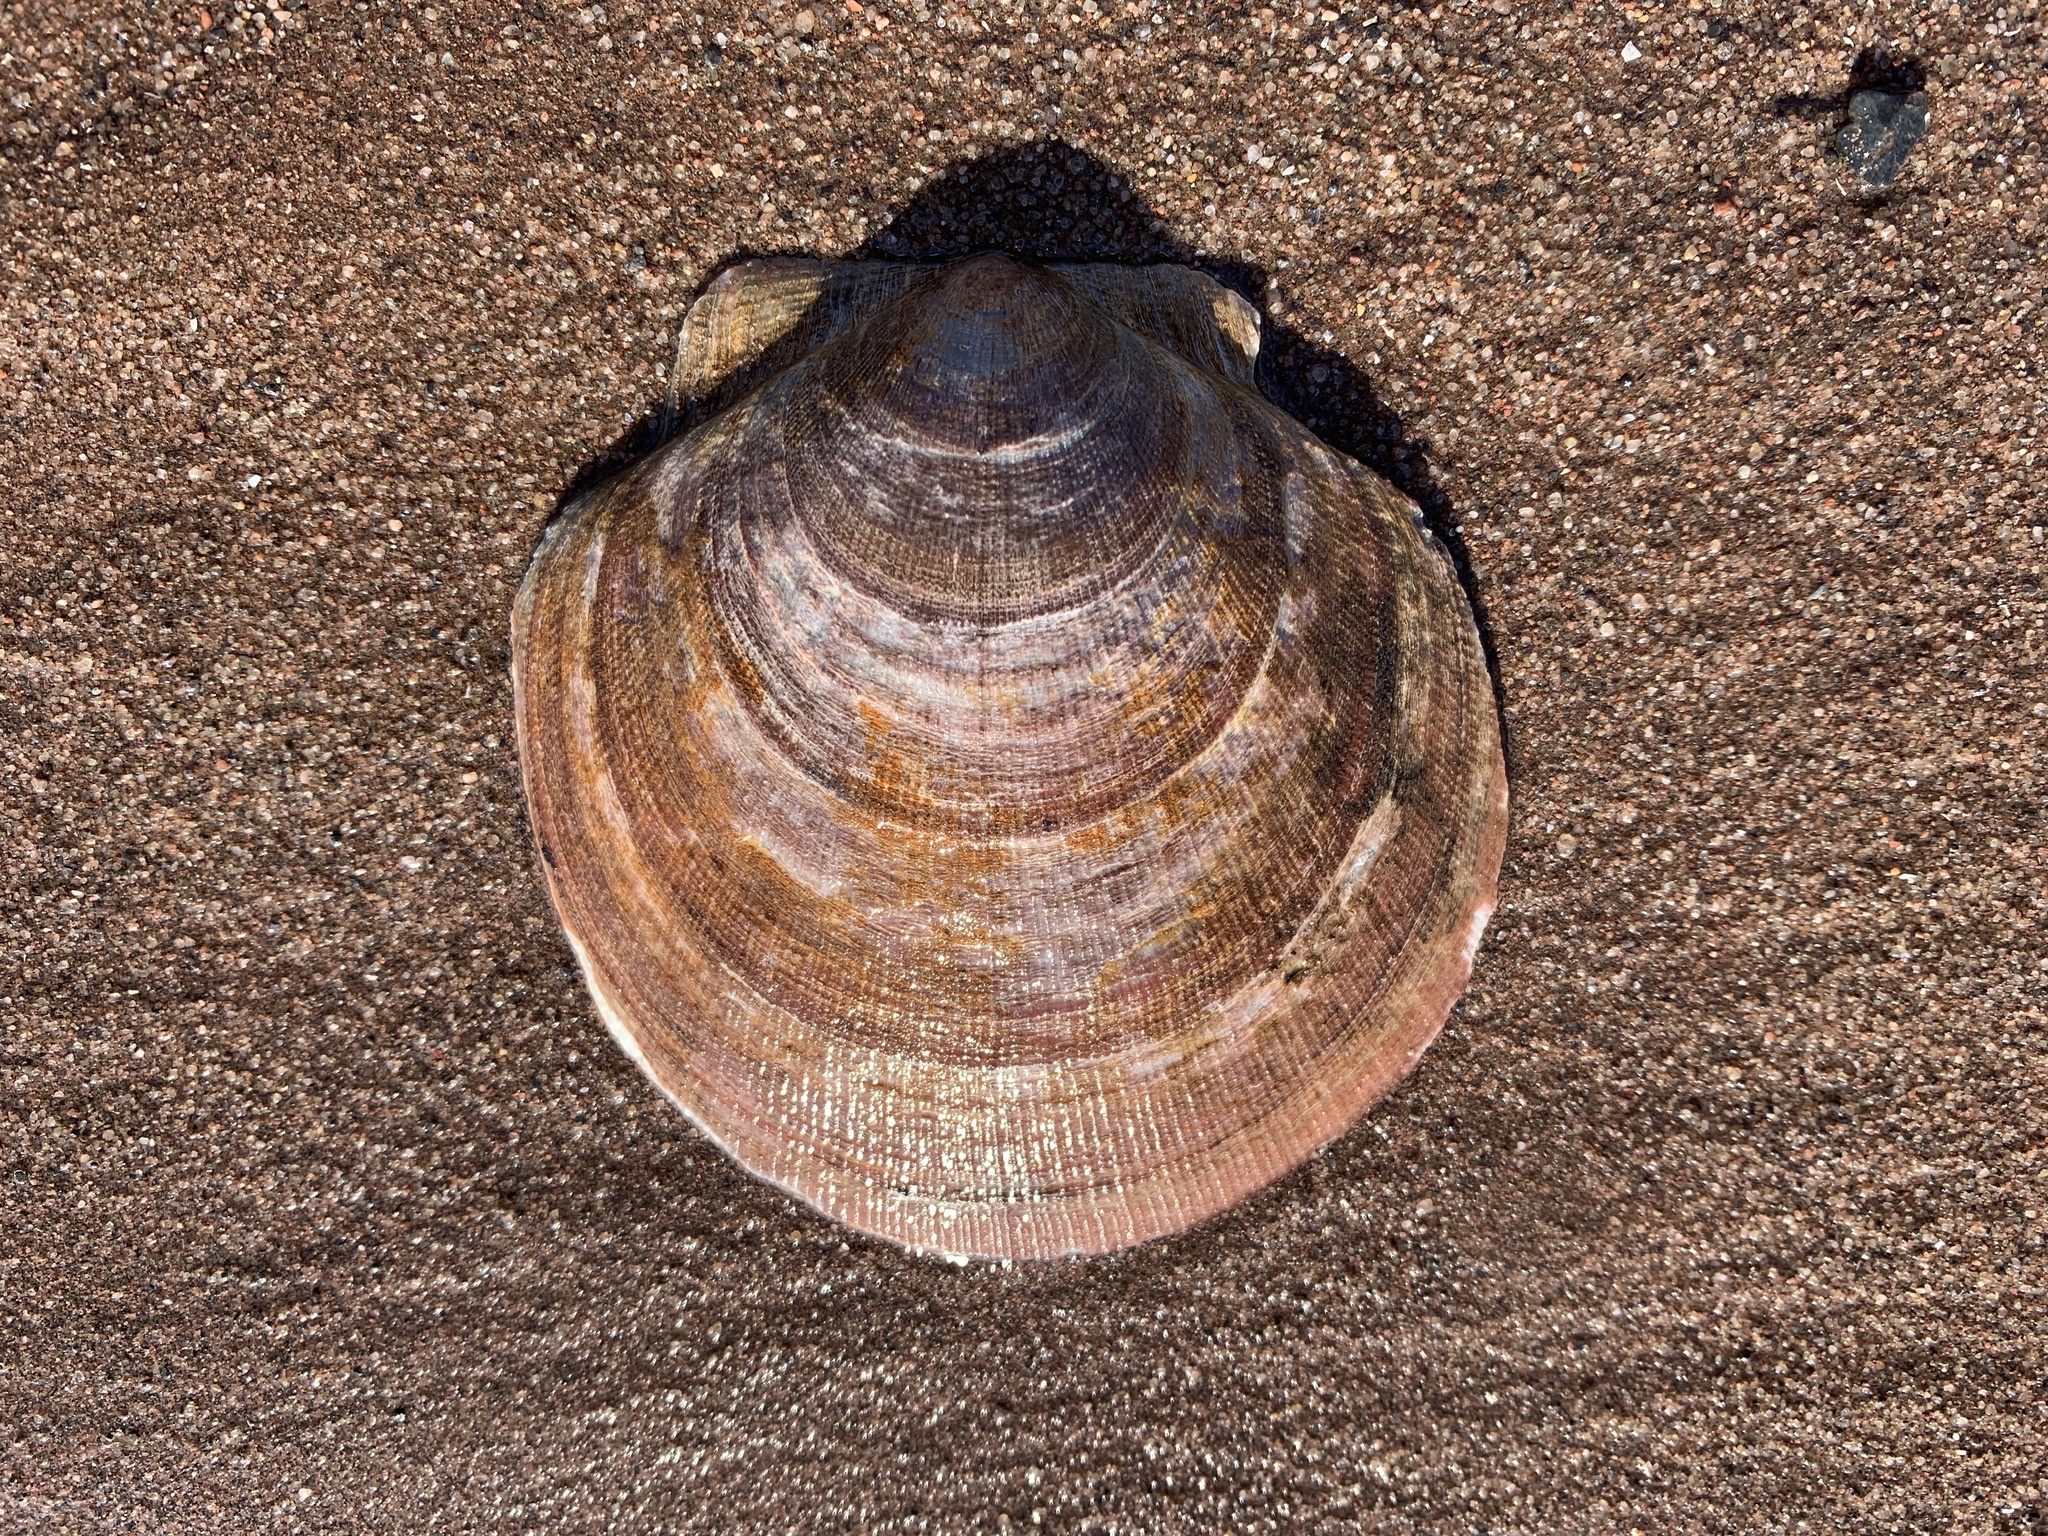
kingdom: Animalia
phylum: Mollusca
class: Bivalvia
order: Pectinida
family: Pectinidae
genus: Placopecten
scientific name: Placopecten magellanicus
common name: American sea scallop
